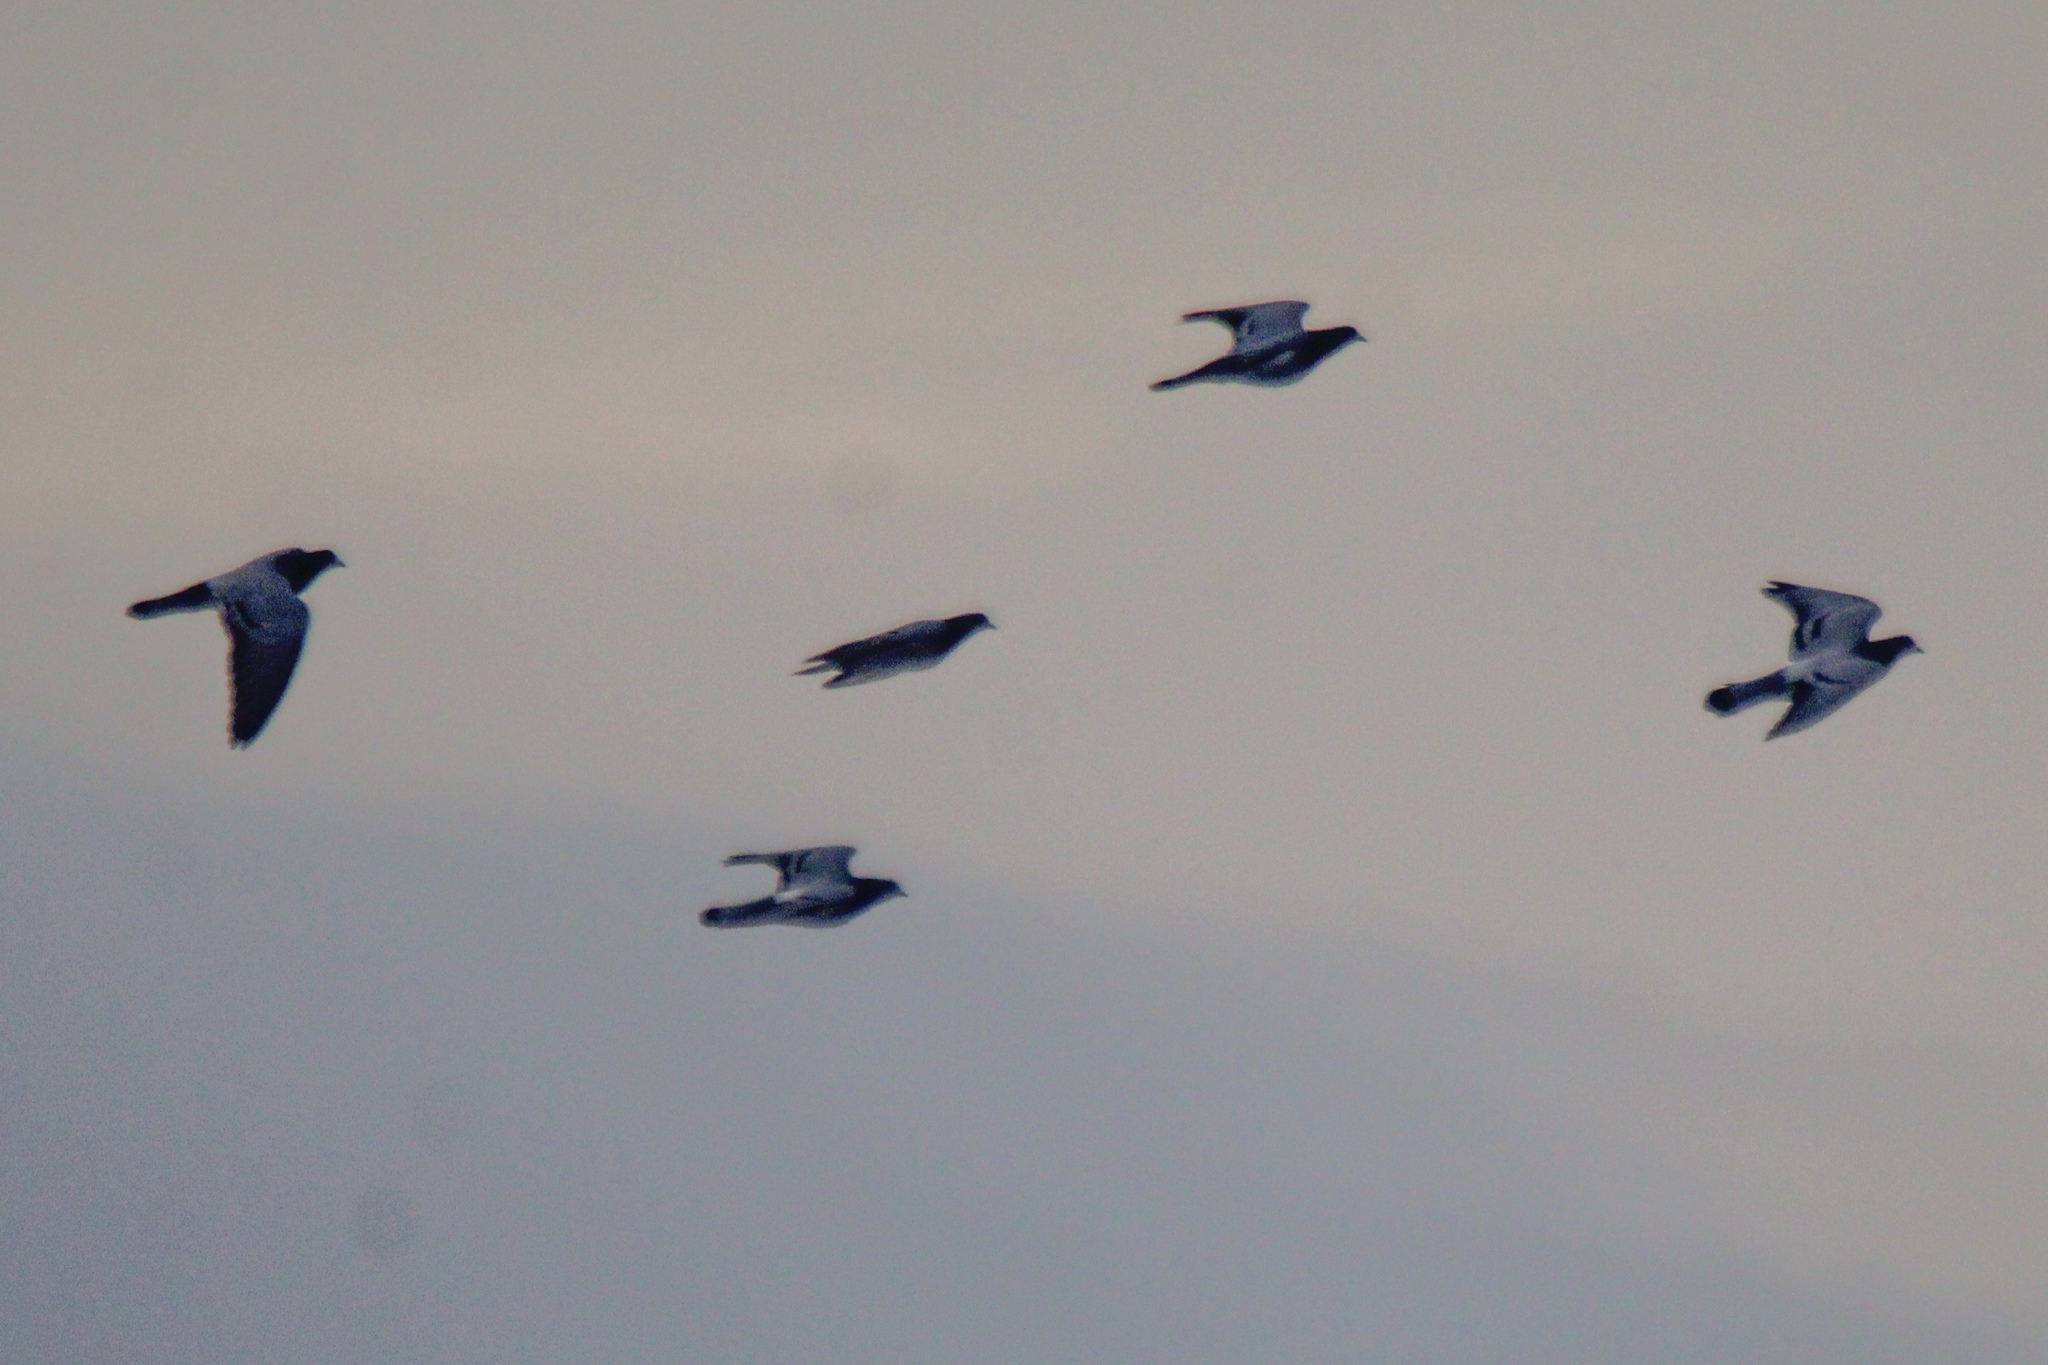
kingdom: Animalia
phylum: Chordata
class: Aves
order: Columbiformes
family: Columbidae
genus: Columba
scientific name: Columba livia
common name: Rock pigeon
